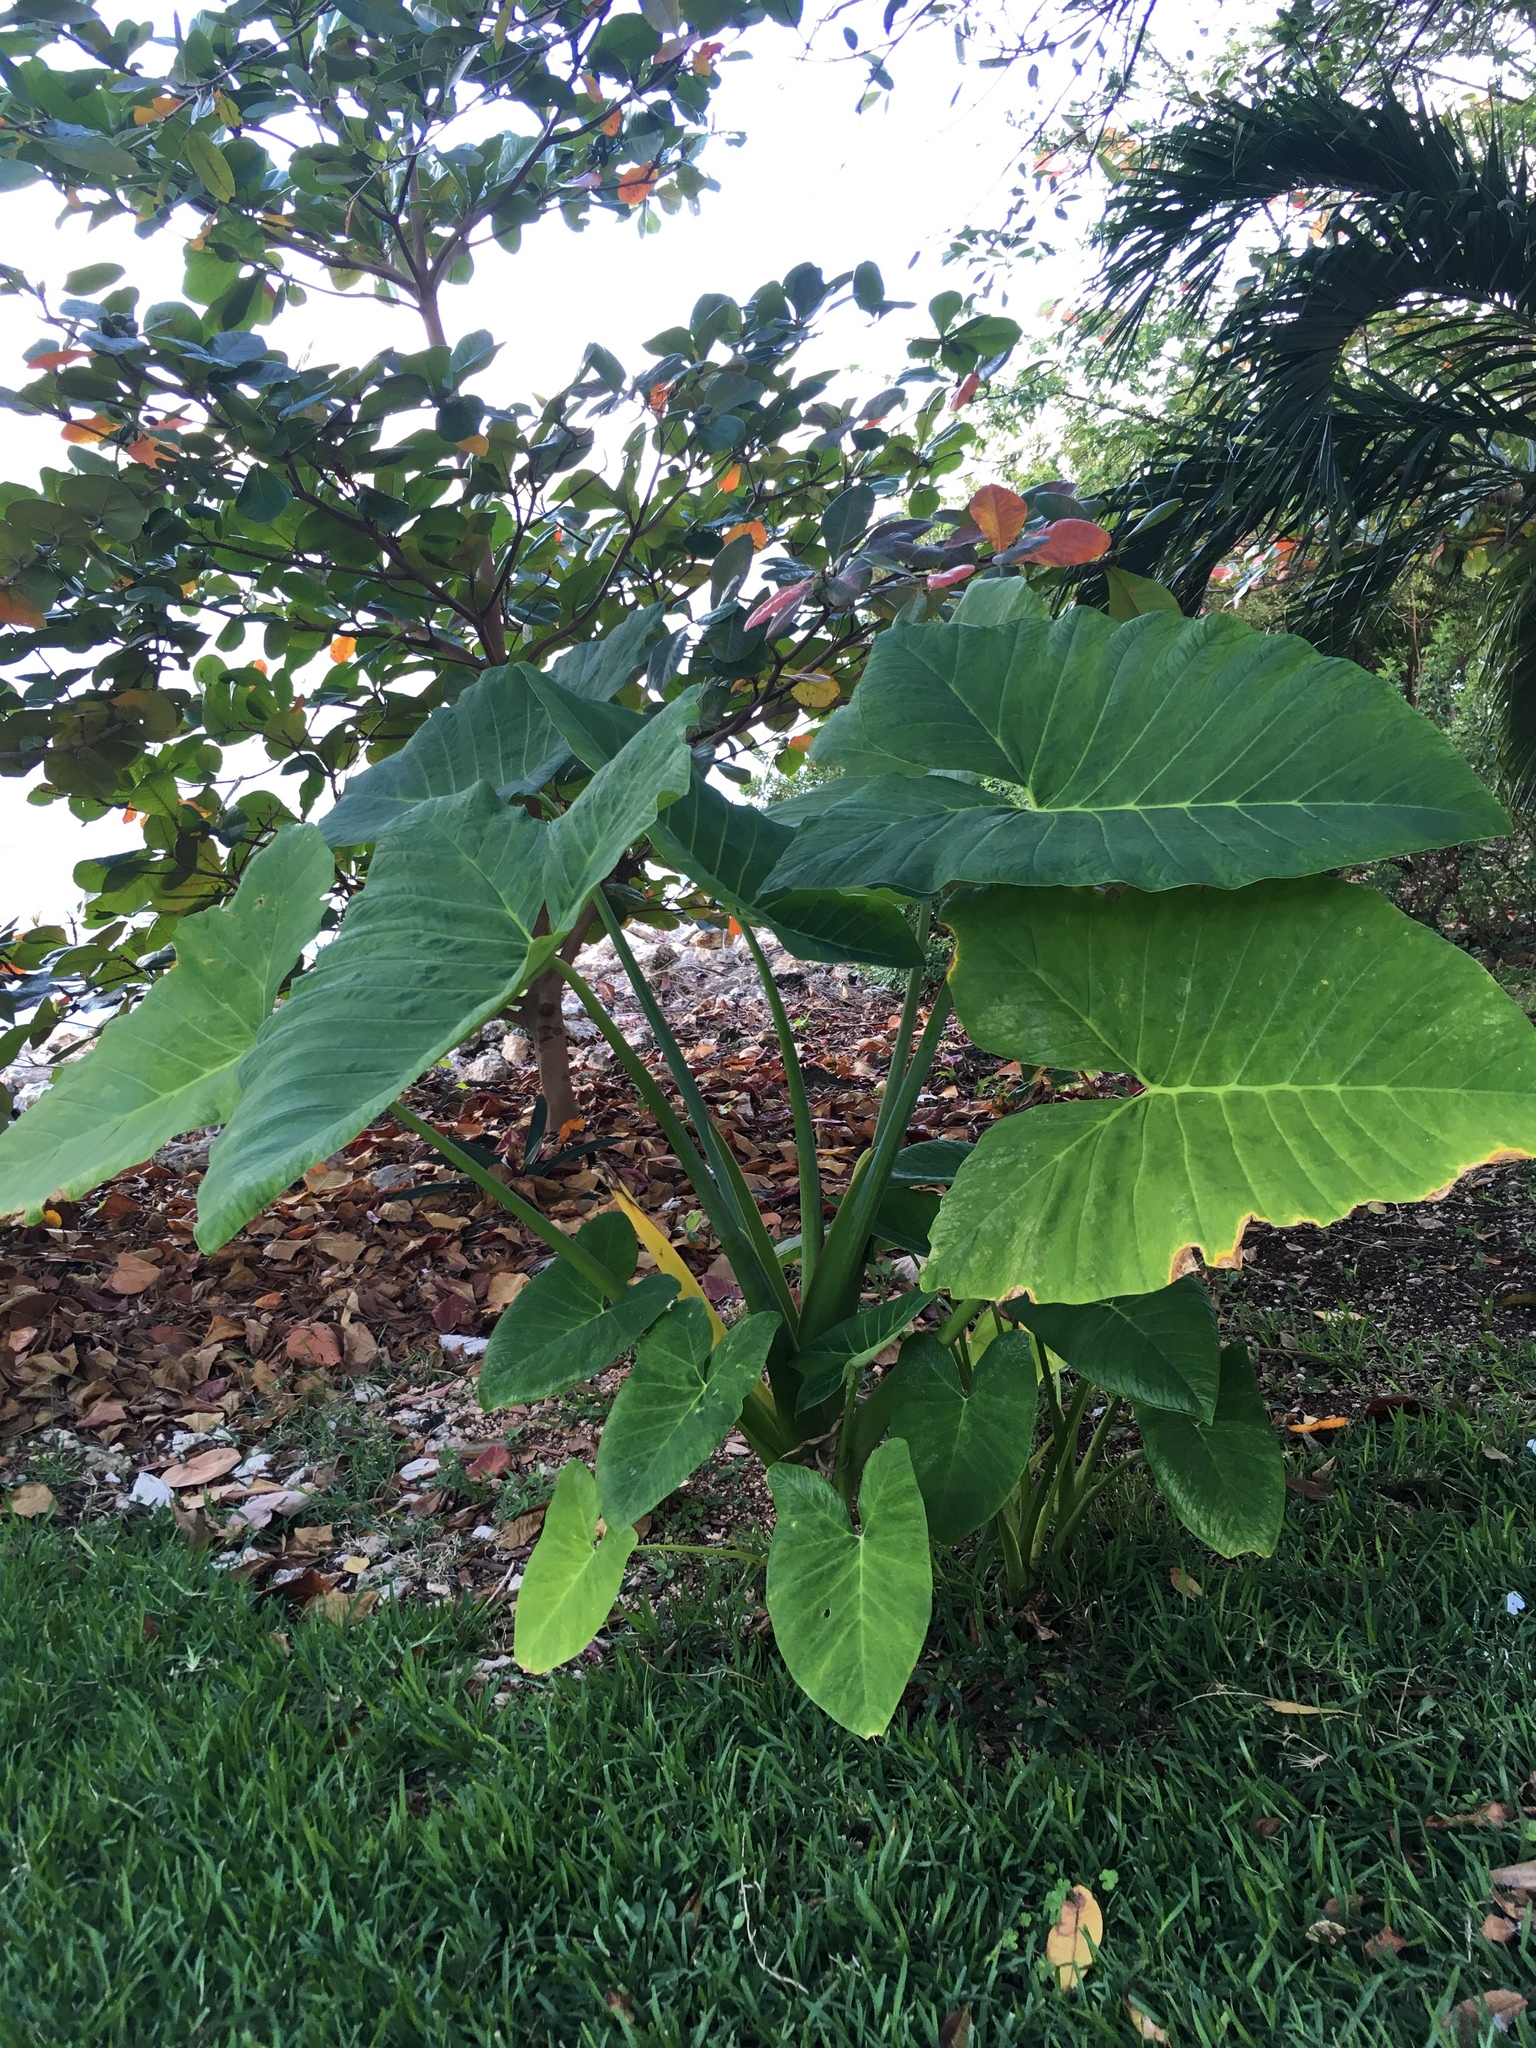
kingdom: Plantae
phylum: Tracheophyta
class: Liliopsida
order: Alismatales
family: Araceae
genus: Xanthosoma
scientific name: Xanthosoma robustum
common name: Capote
